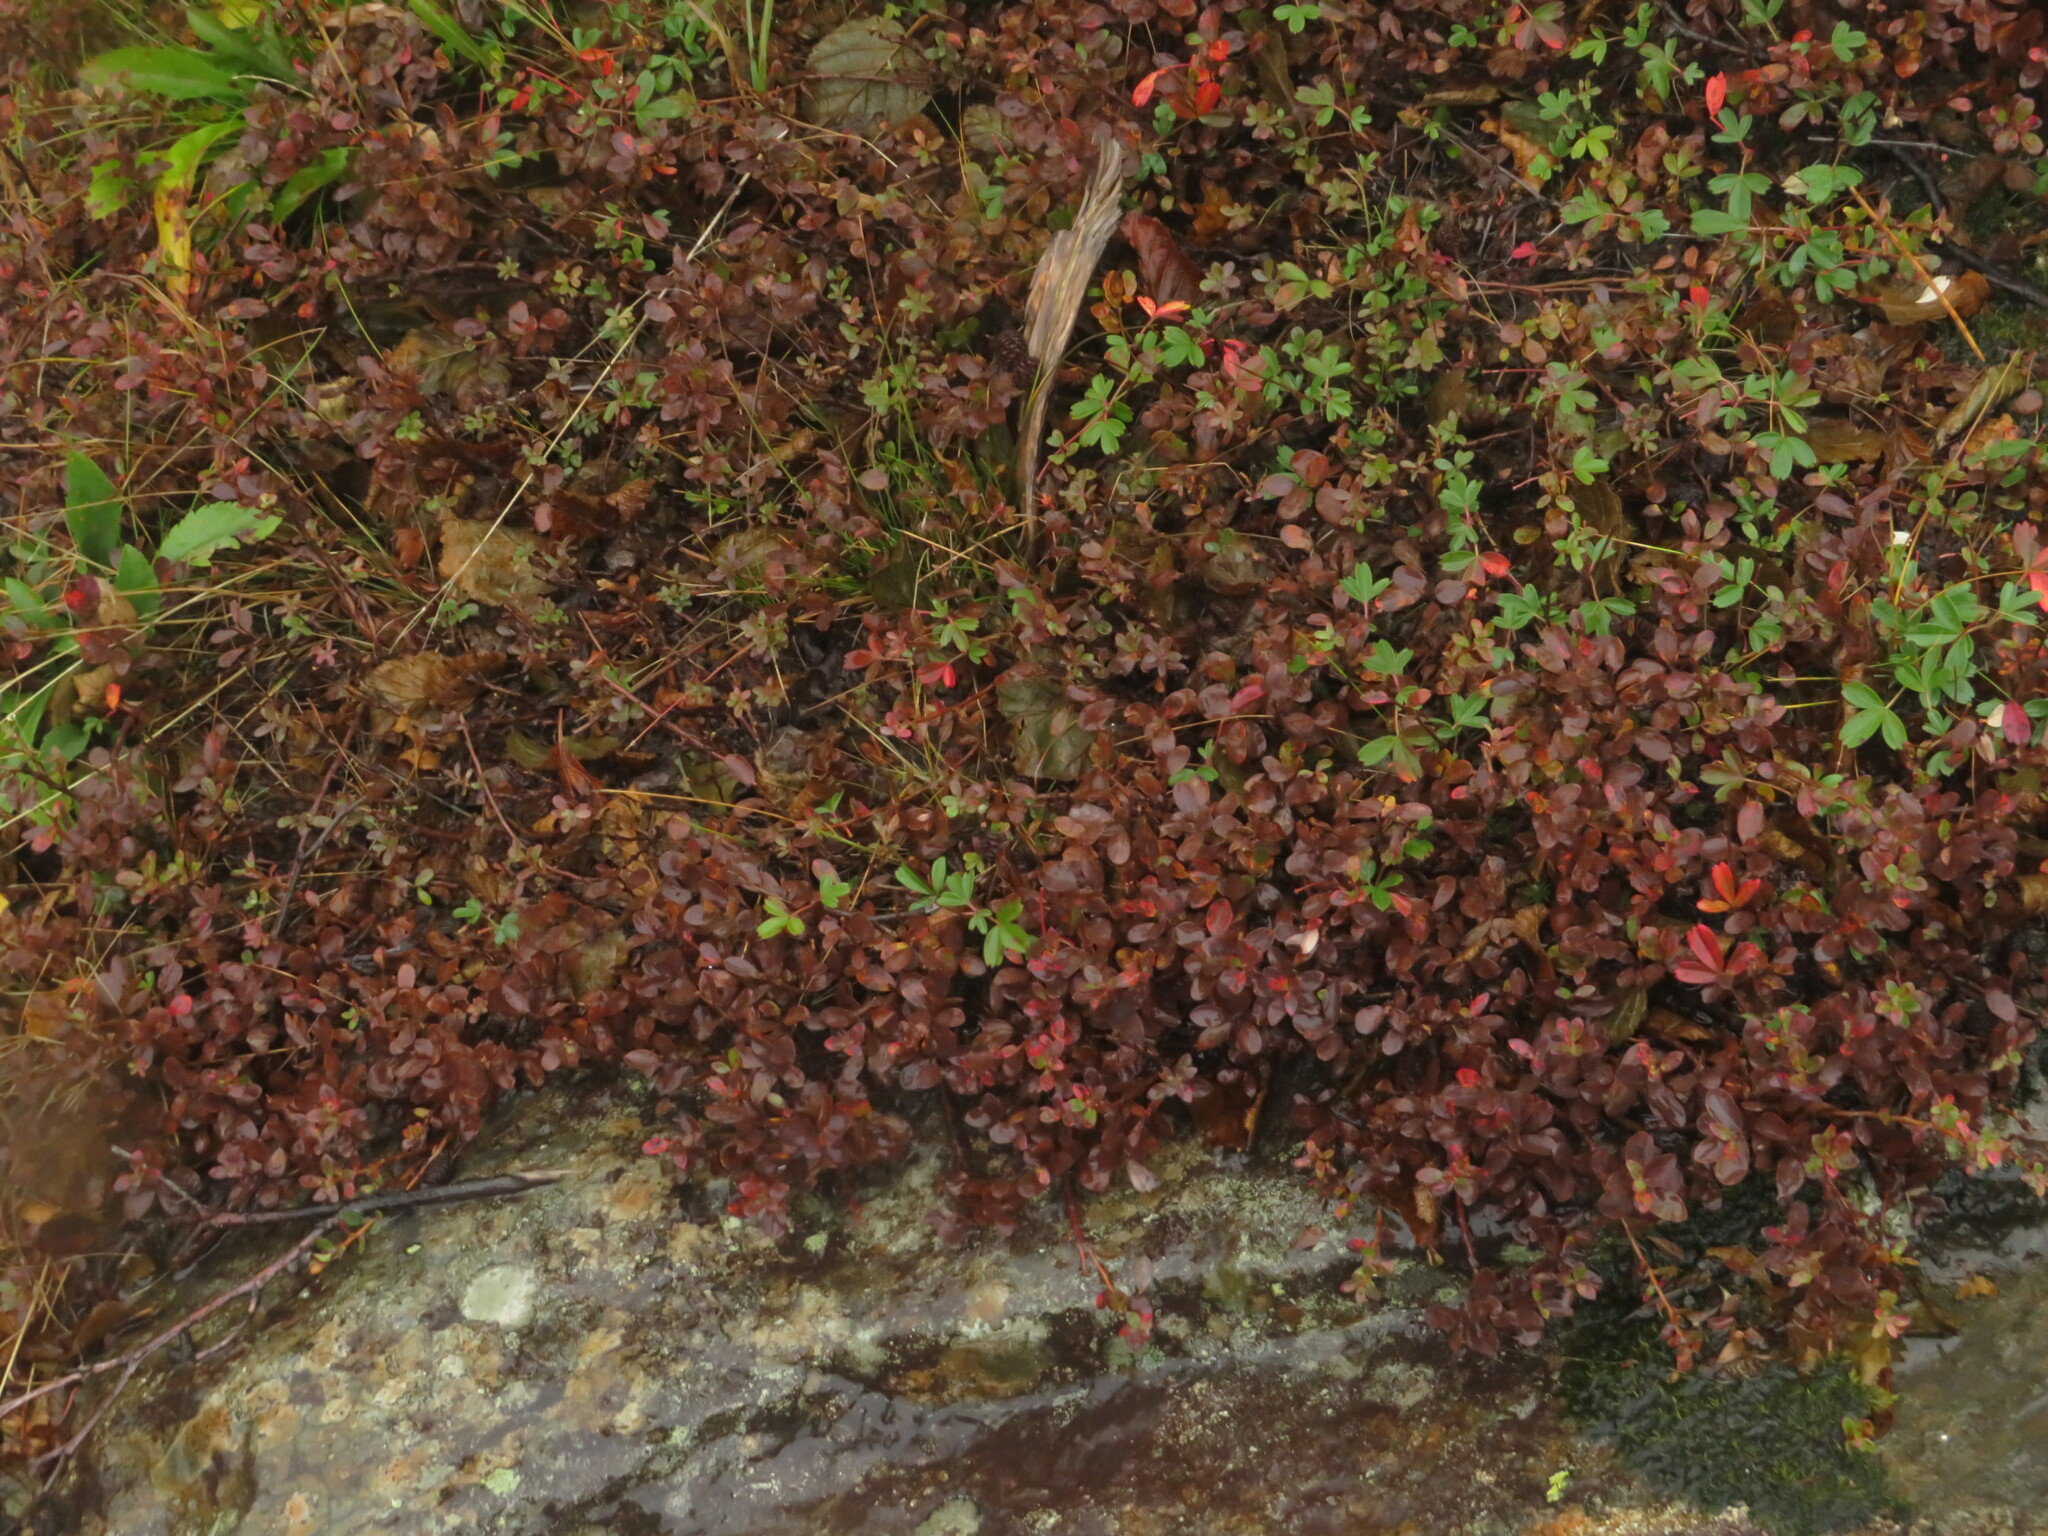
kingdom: Plantae
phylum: Tracheophyta
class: Magnoliopsida
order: Rosales
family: Rosaceae
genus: Sibbaldia
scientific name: Sibbaldia tridentata
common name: Three-toothed cinquefoil
